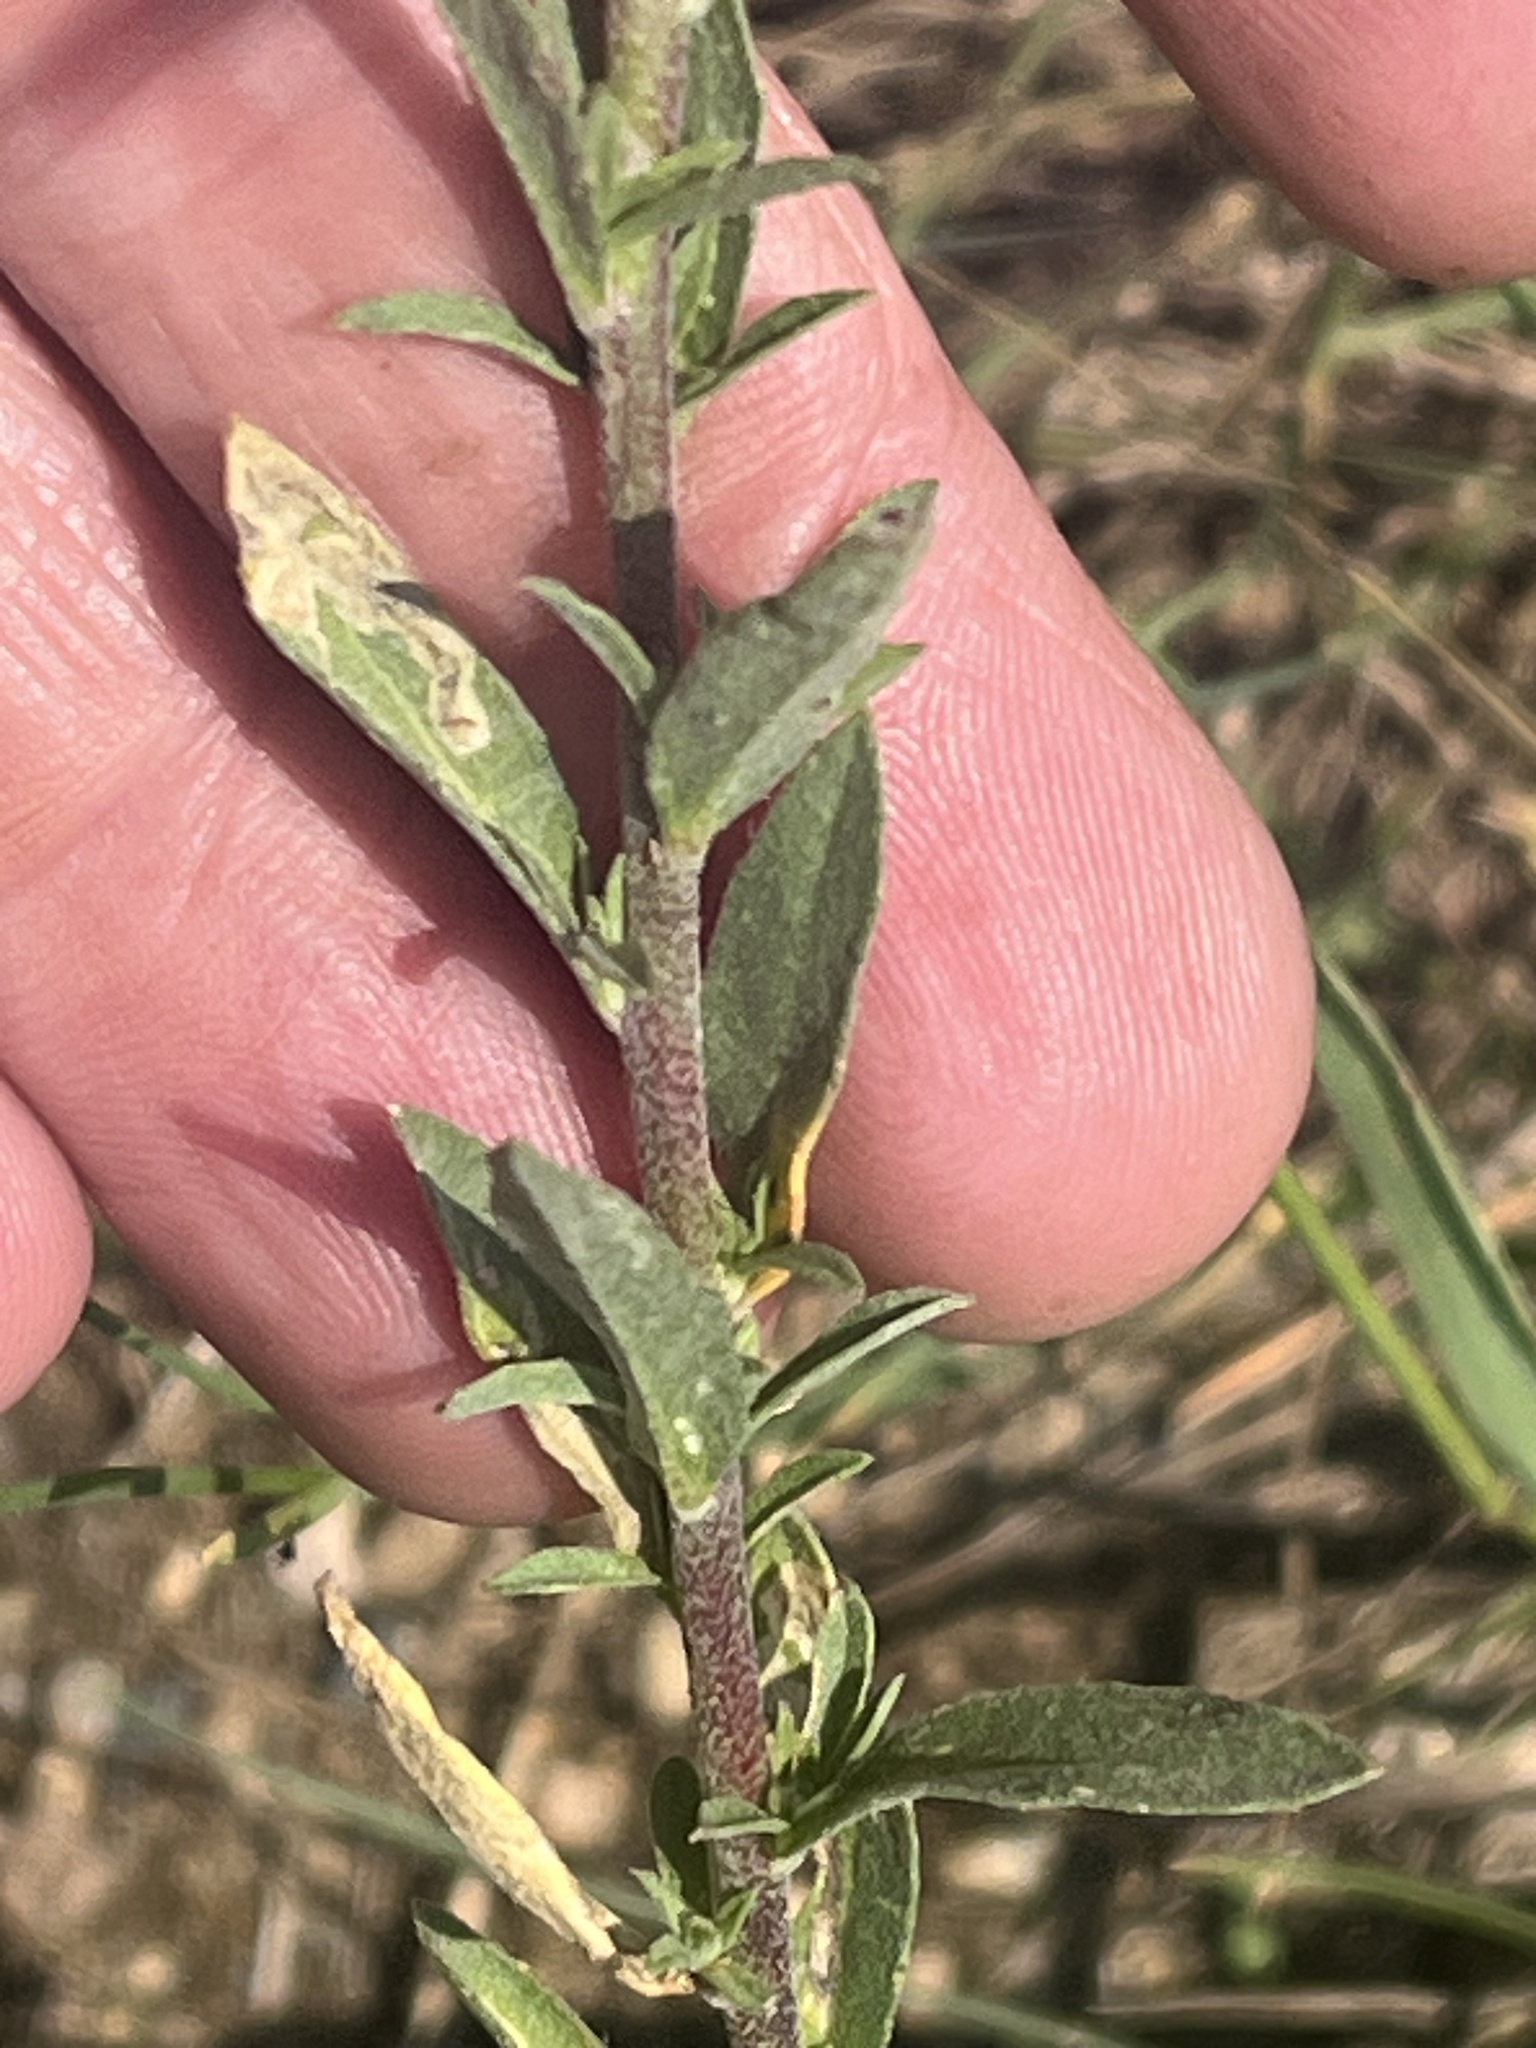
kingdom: Plantae
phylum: Tracheophyta
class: Magnoliopsida
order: Brassicales
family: Brassicaceae
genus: Berteroa
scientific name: Berteroa incana
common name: Hoary alison
